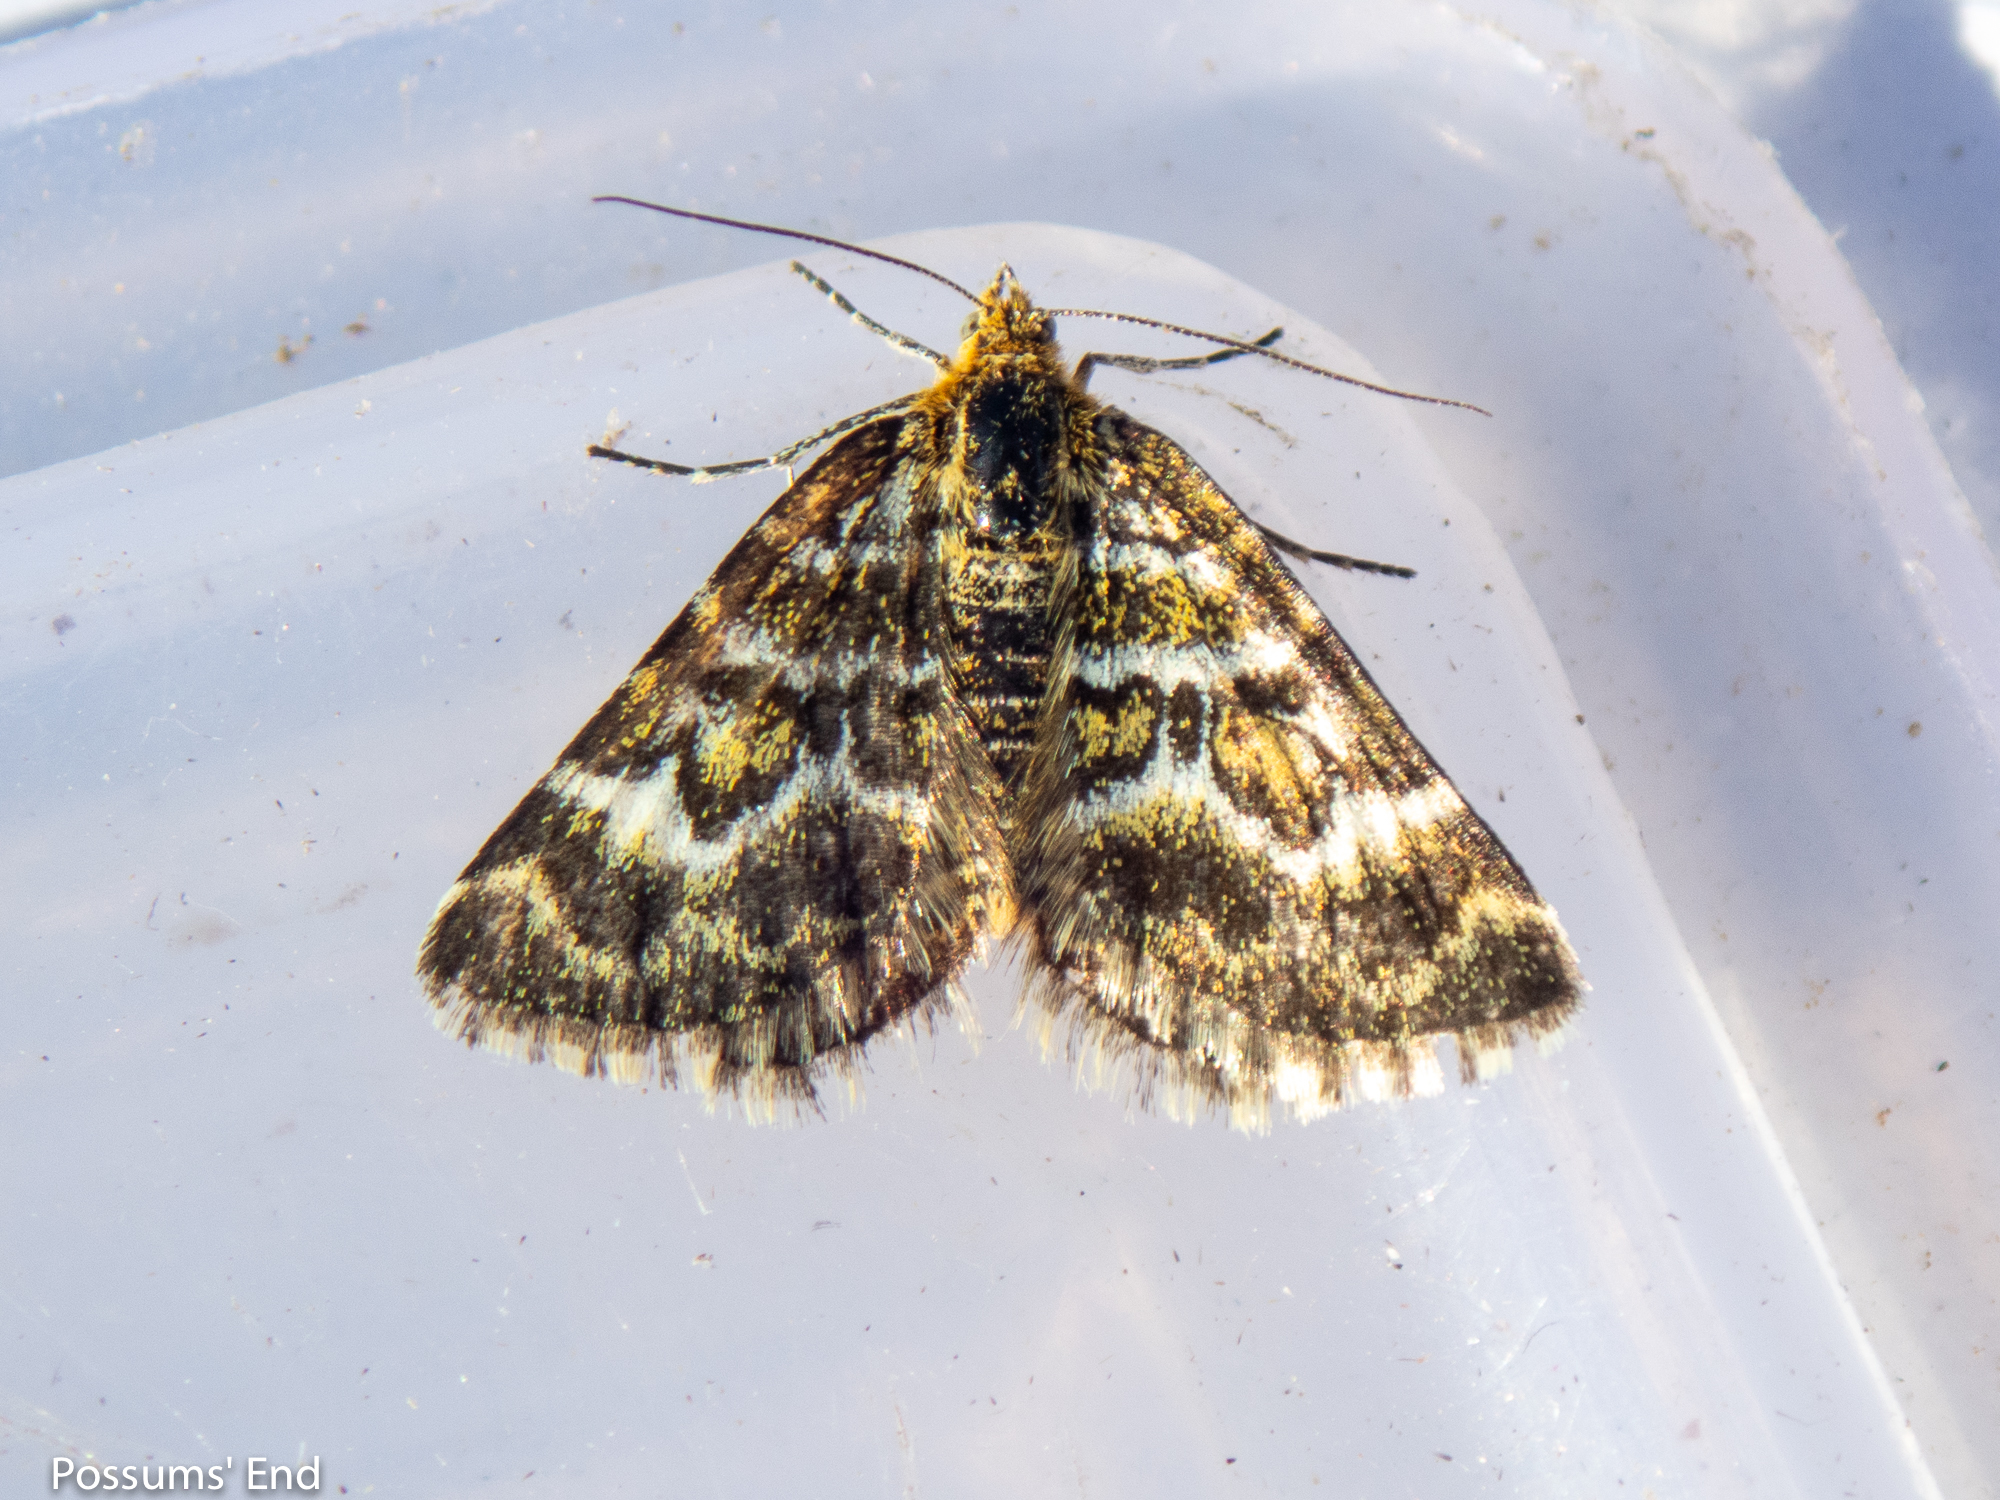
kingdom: Animalia
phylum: Arthropoda
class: Insecta
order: Lepidoptera
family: Geometridae
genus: Notoreas
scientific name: Notoreas paradelpha
